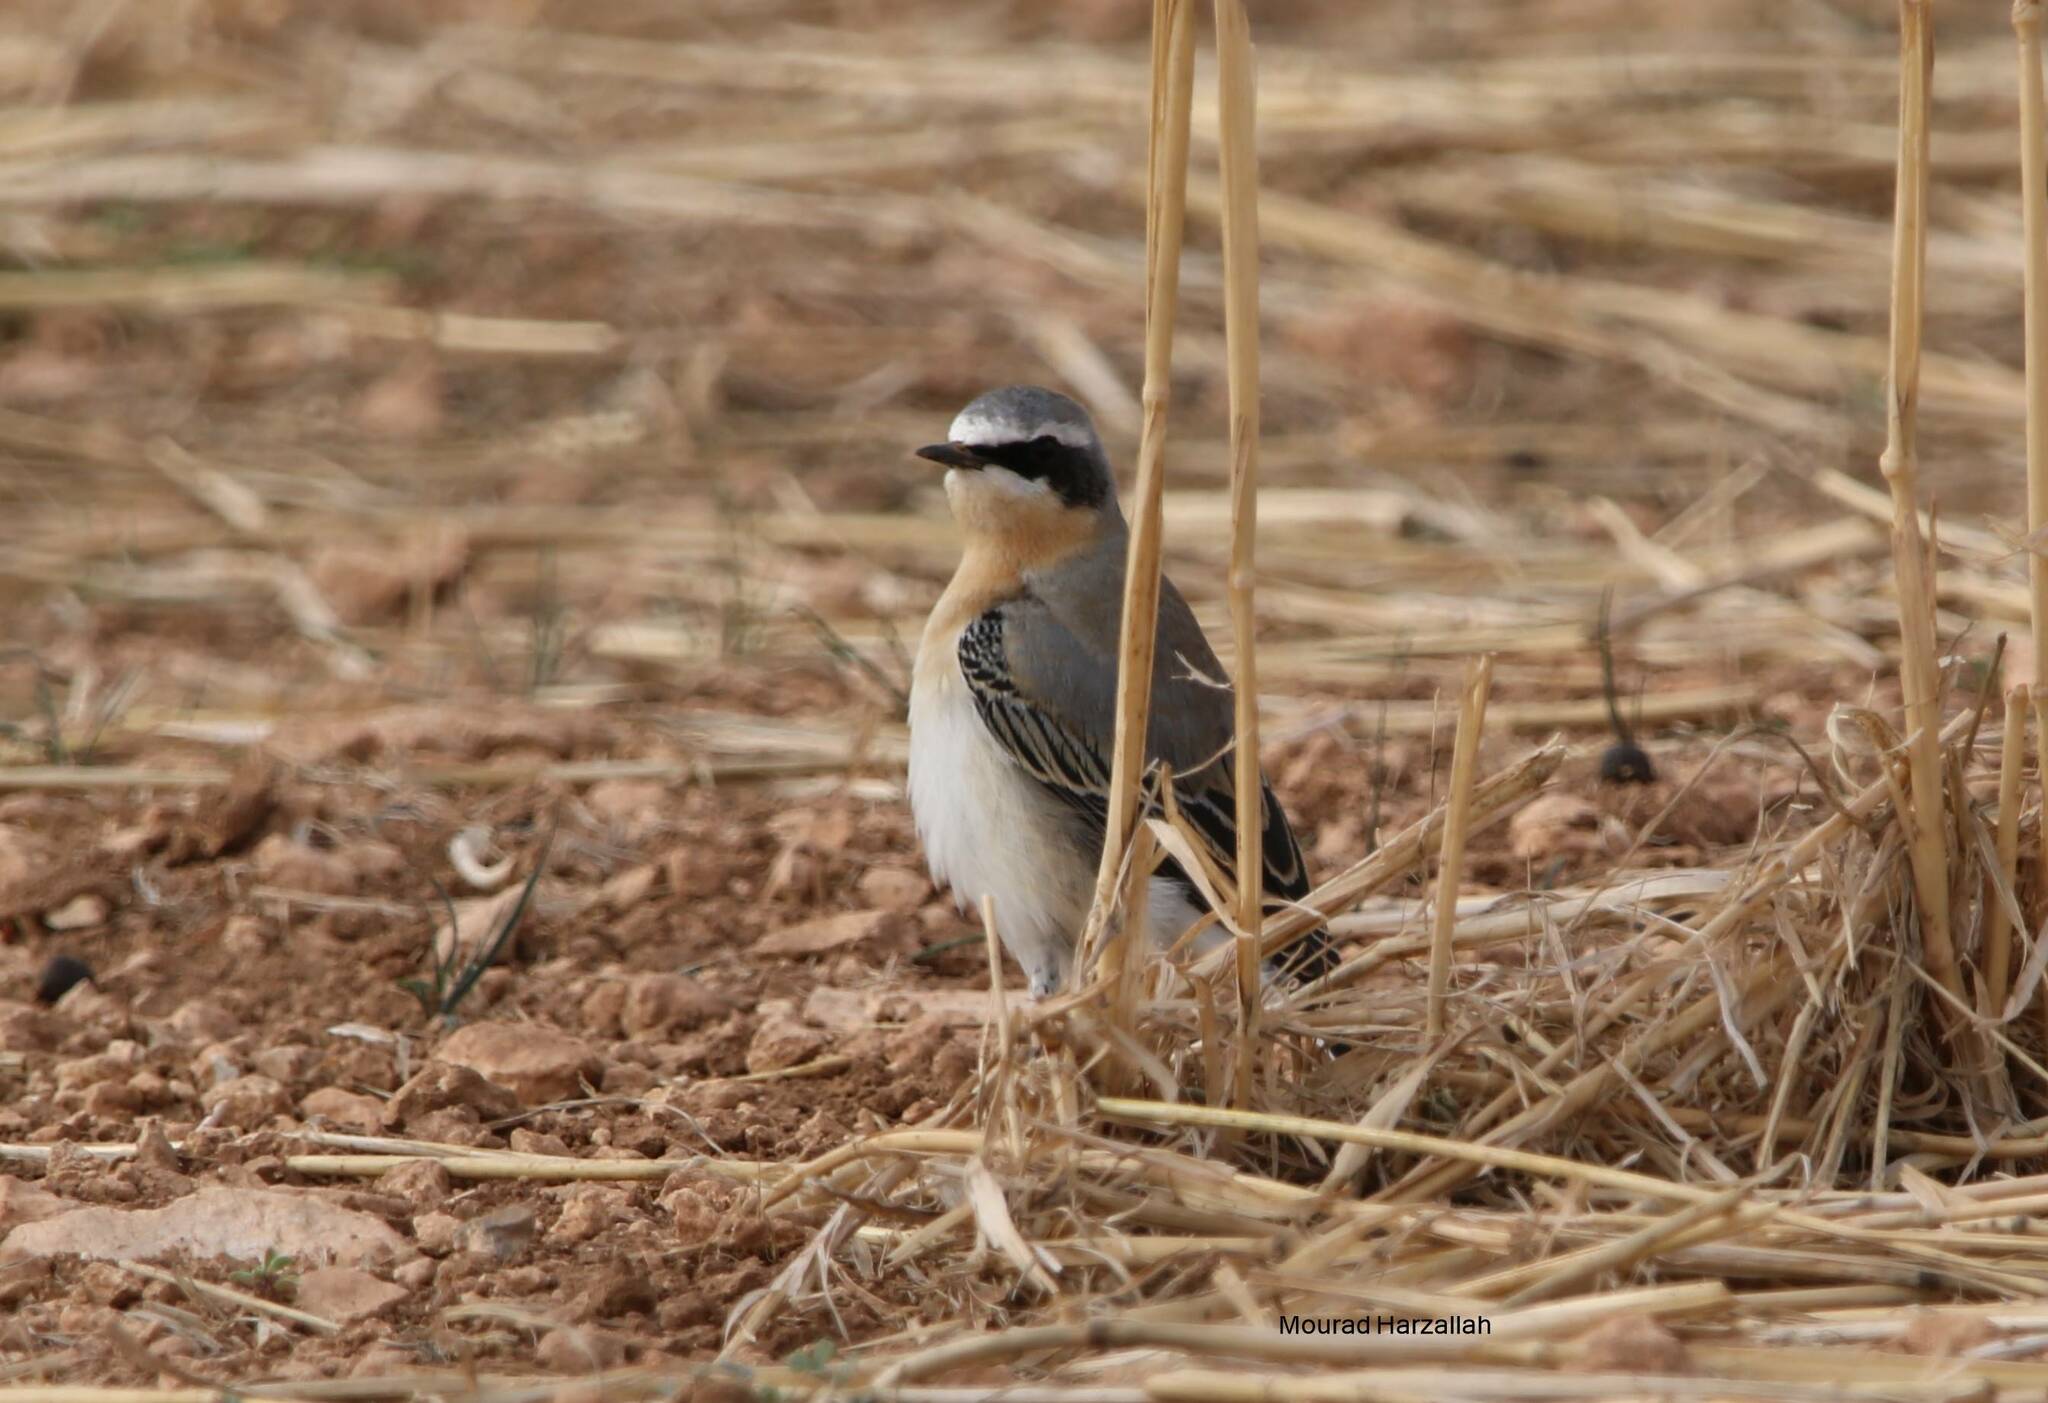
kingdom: Animalia
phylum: Chordata
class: Aves
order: Passeriformes
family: Muscicapidae
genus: Oenanthe
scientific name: Oenanthe oenanthe
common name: Northern wheatear
